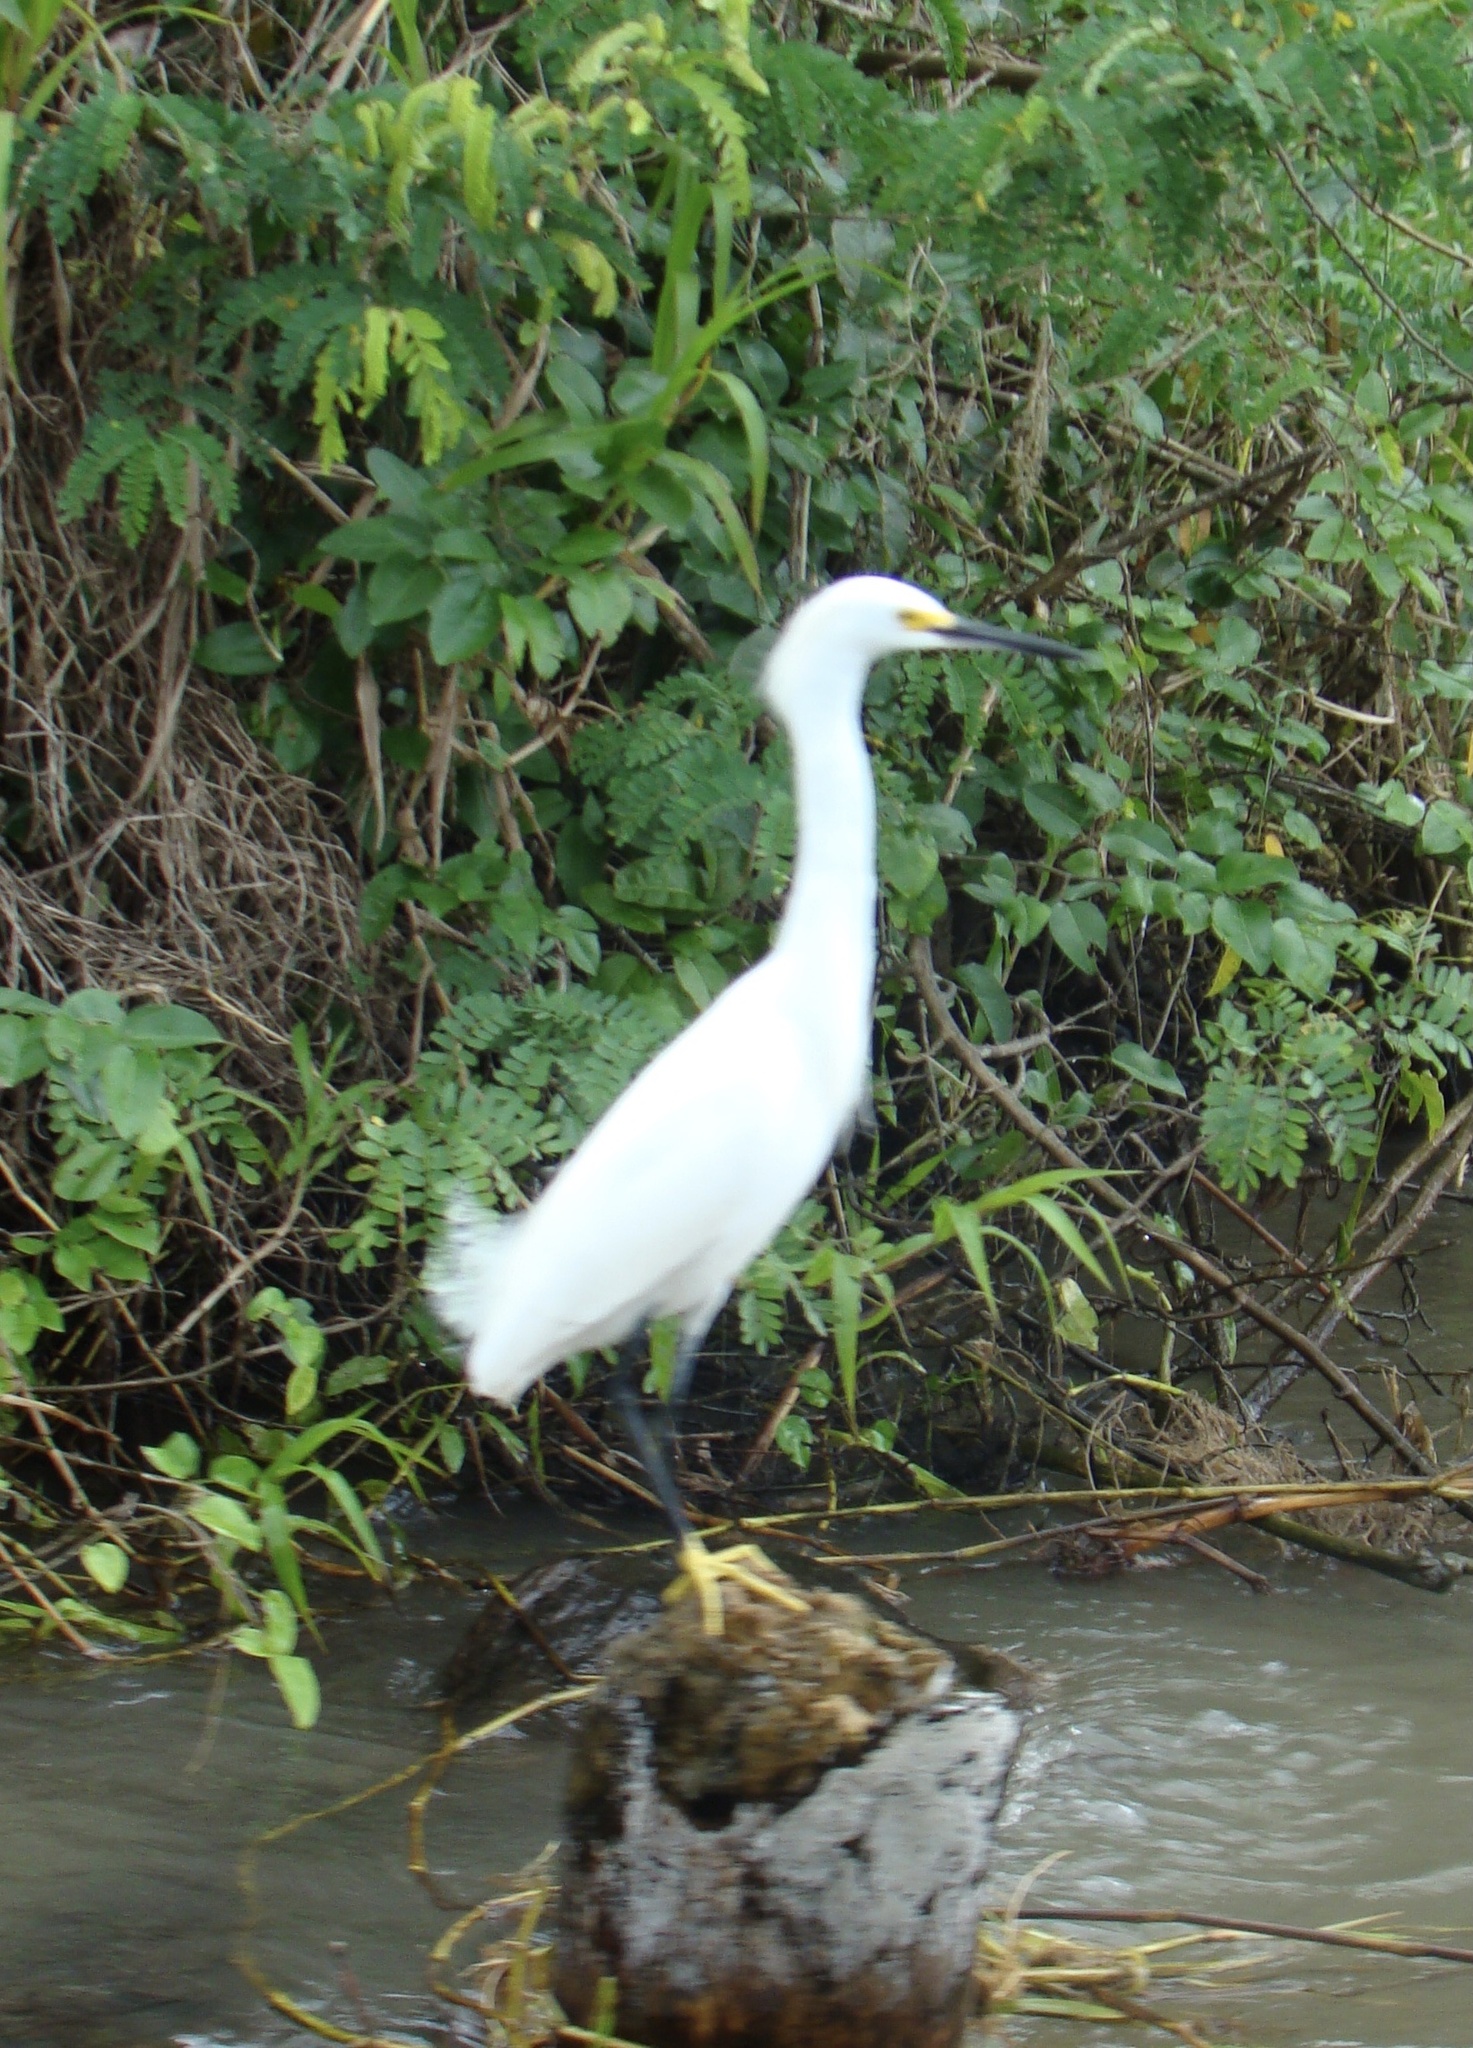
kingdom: Animalia
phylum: Chordata
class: Aves
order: Pelecaniformes
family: Ardeidae
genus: Egretta
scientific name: Egretta thula
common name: Snowy egret
